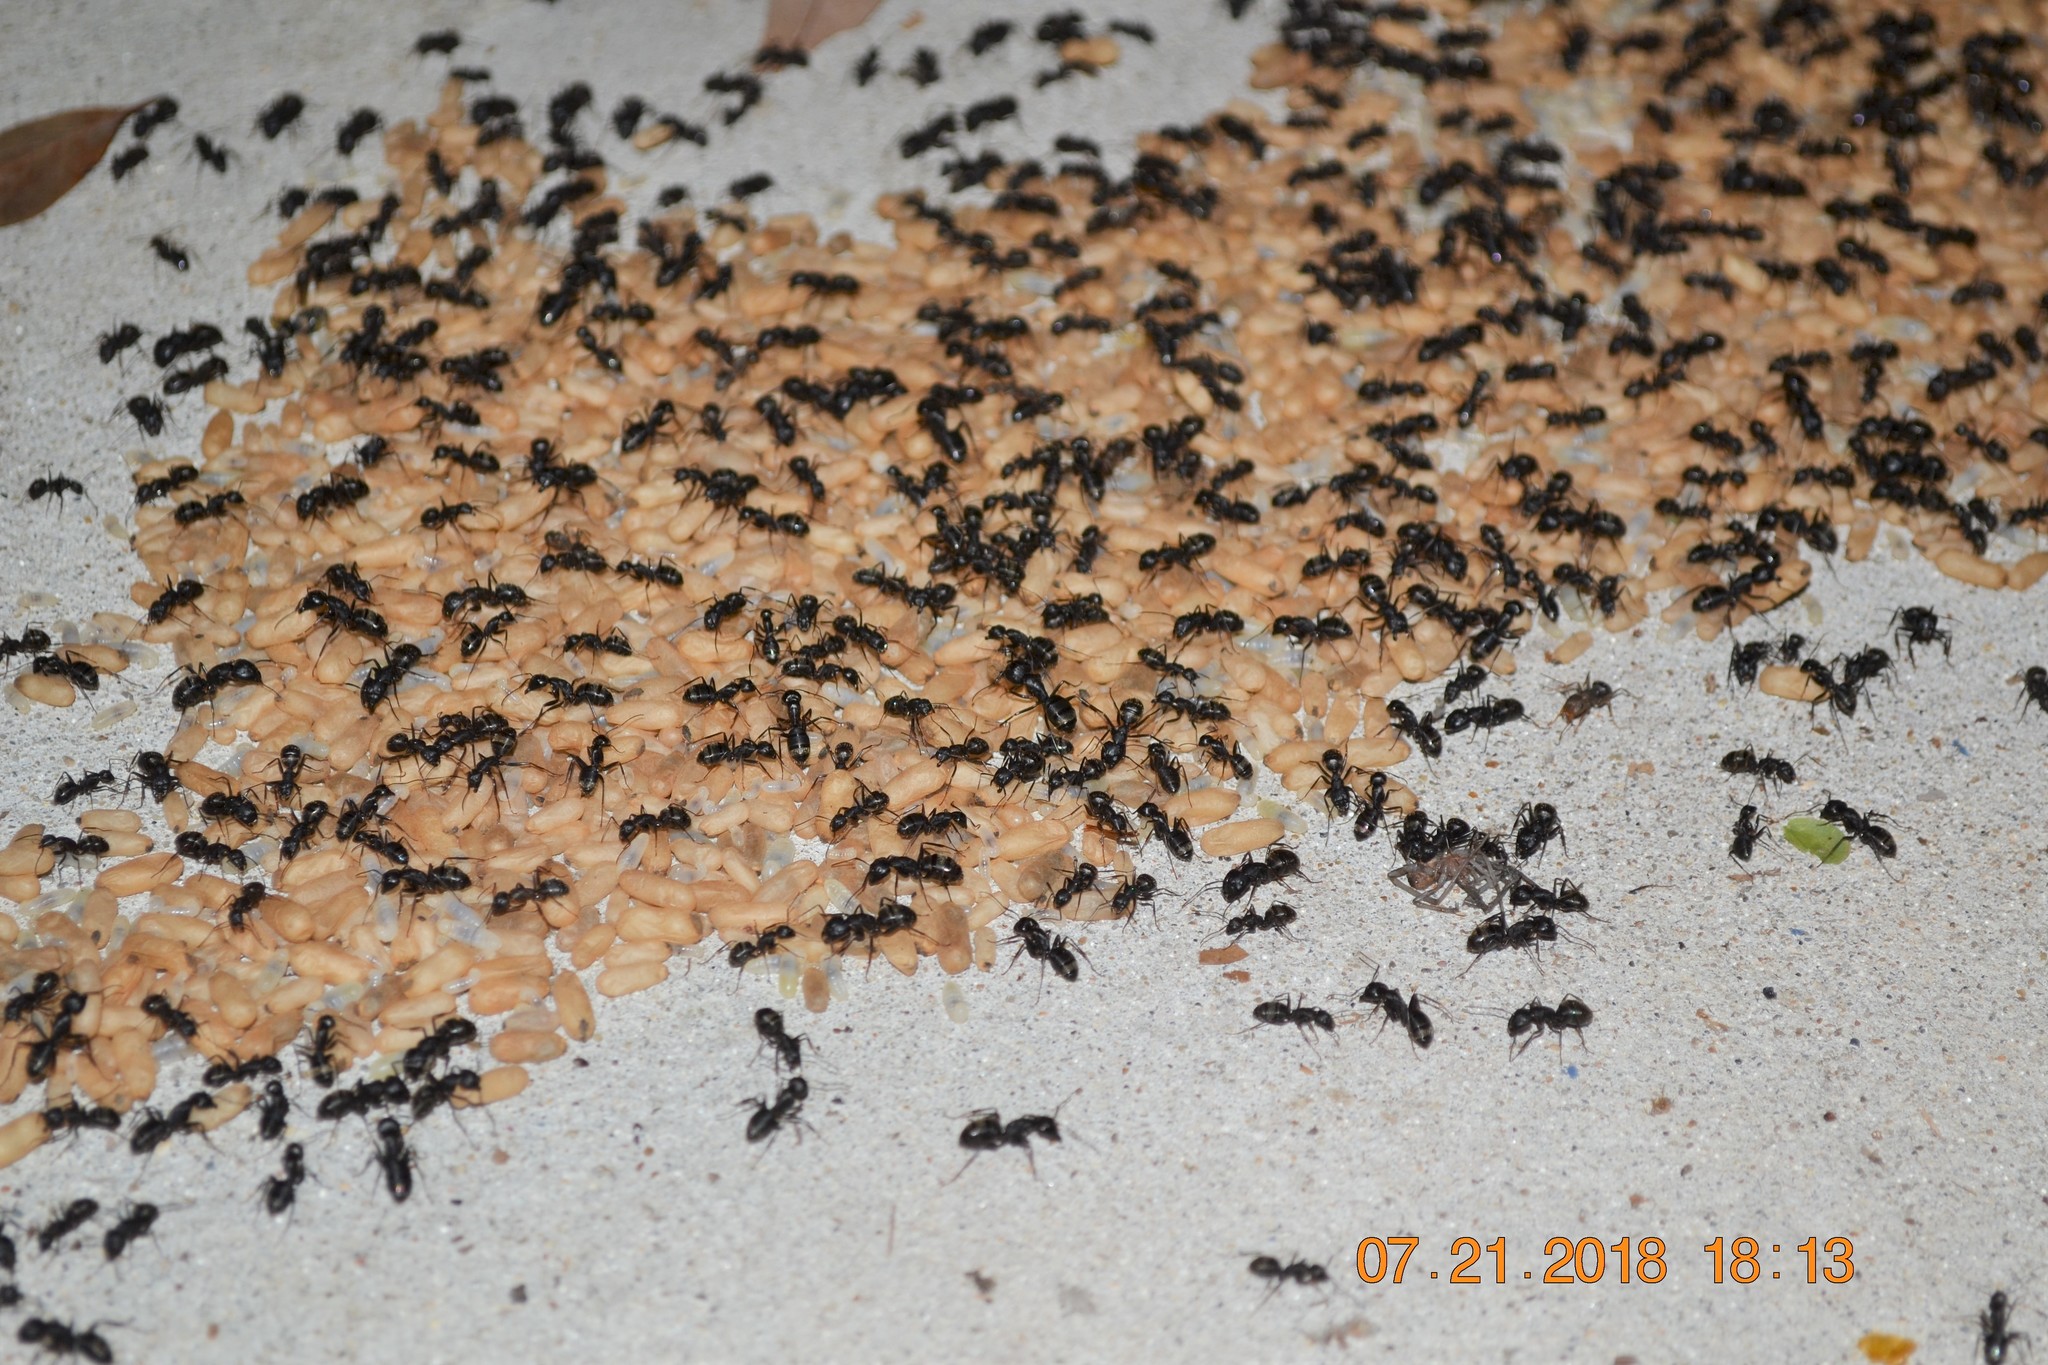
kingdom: Animalia
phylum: Arthropoda
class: Insecta
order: Hymenoptera
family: Formicidae
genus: Camponotus
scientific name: Camponotus pennsylvanicus
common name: Black carpenter ant
